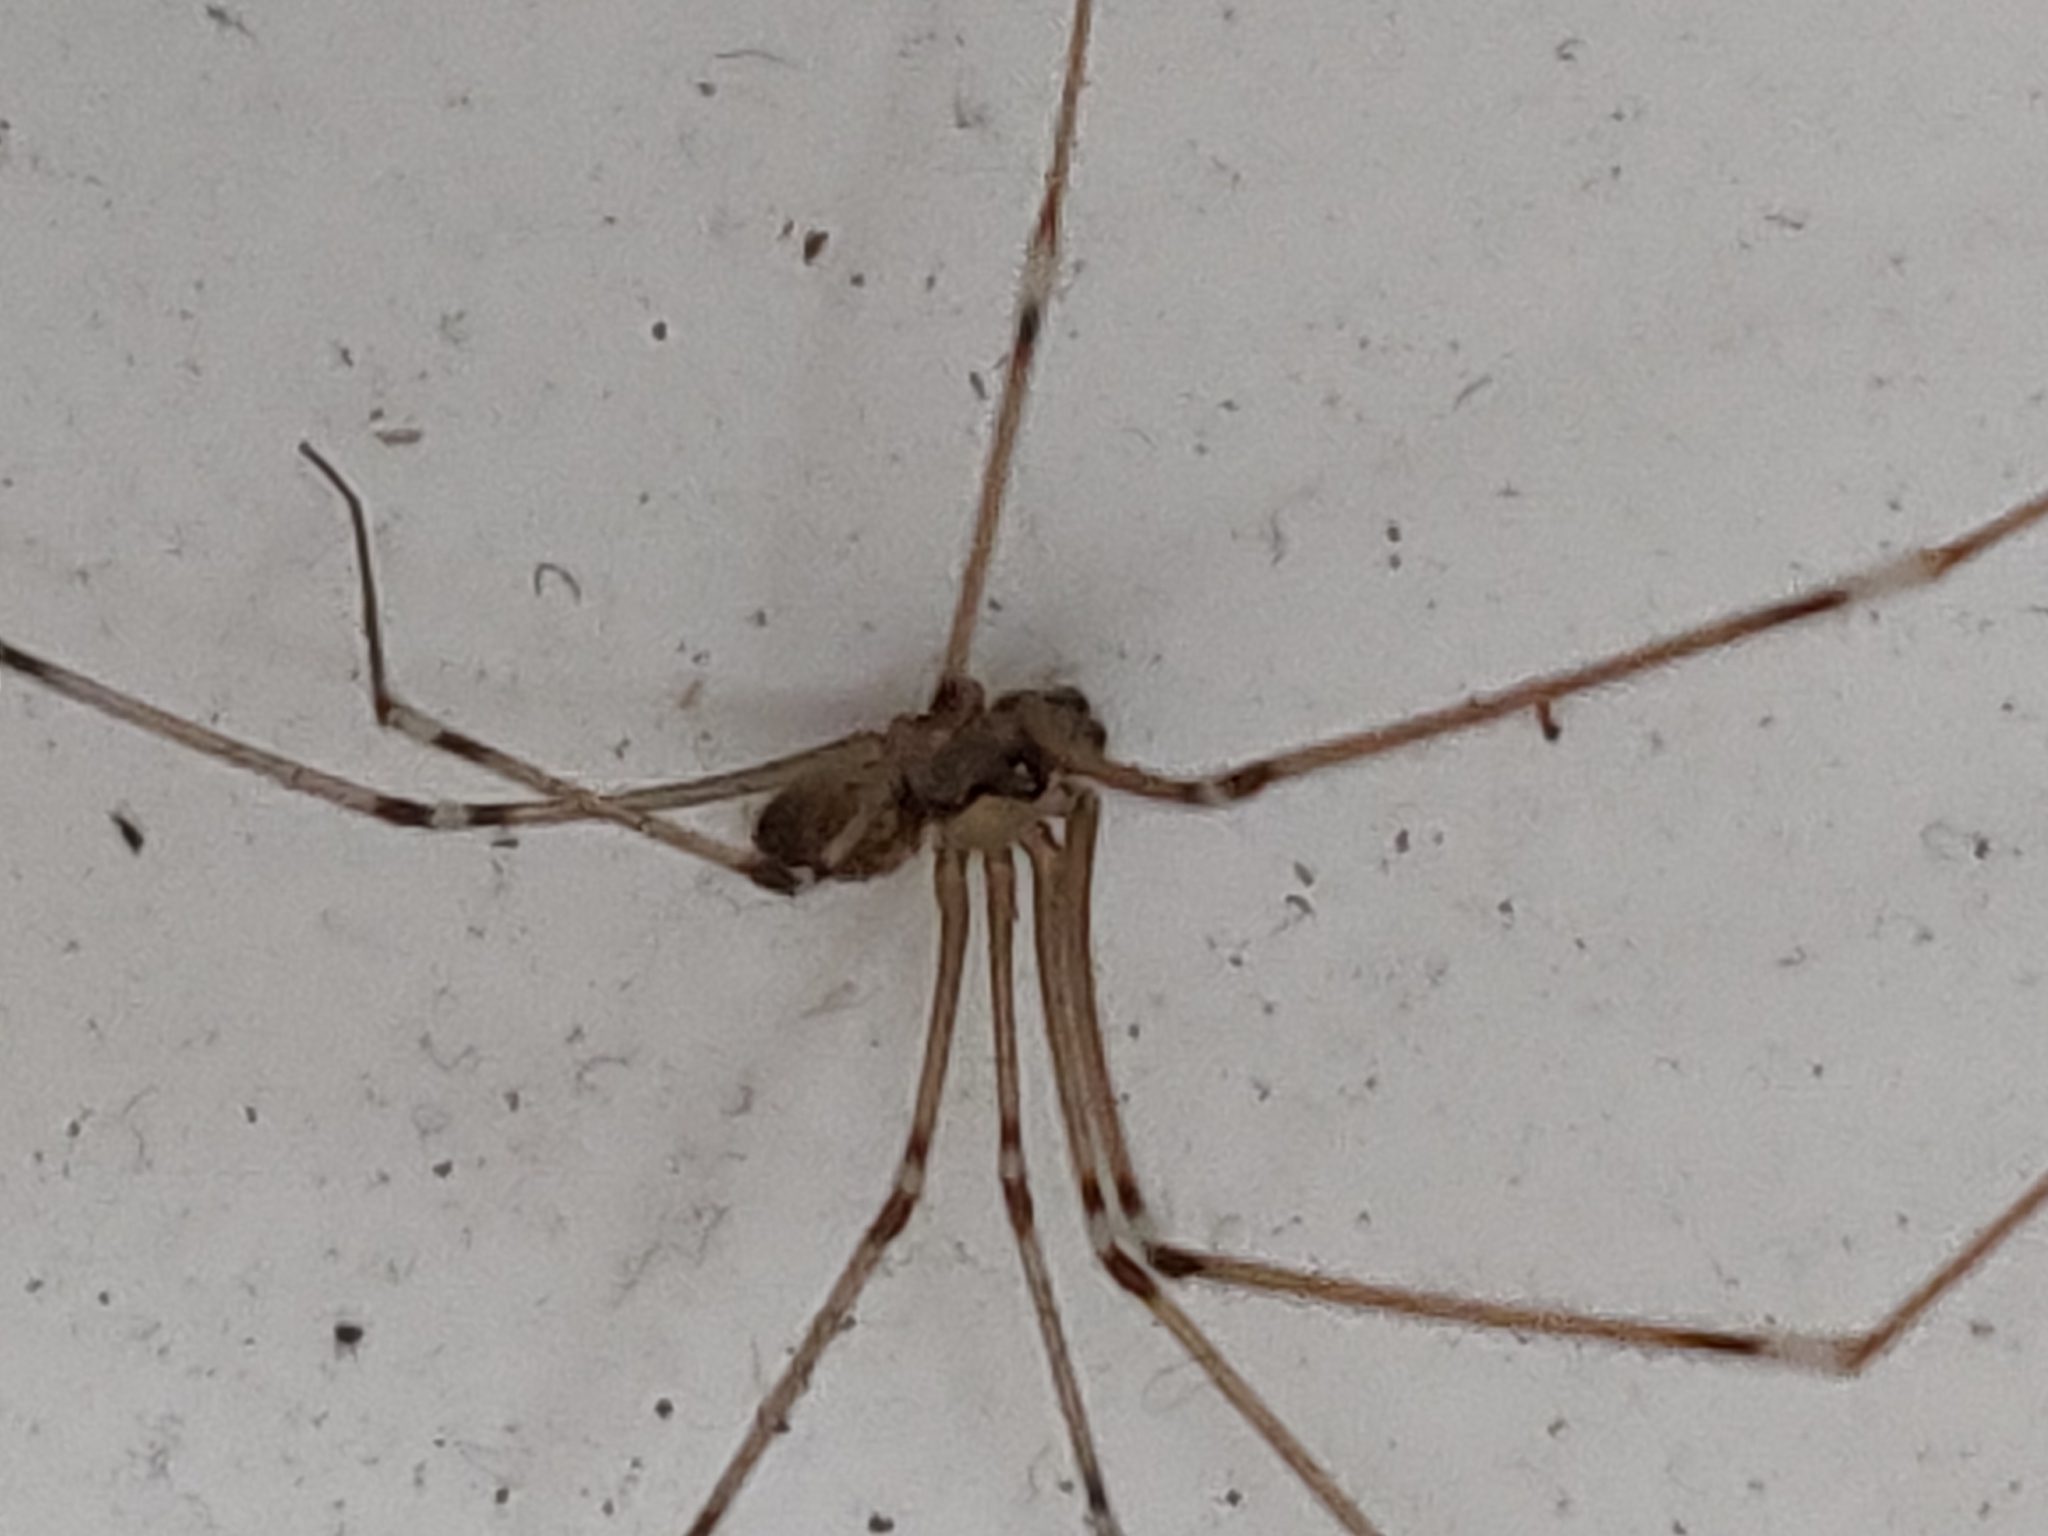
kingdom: Animalia
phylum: Arthropoda
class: Arachnida
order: Araneae
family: Pholcidae
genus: Holocnemus
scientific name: Holocnemus pluchei
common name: Marbled cellar spider
